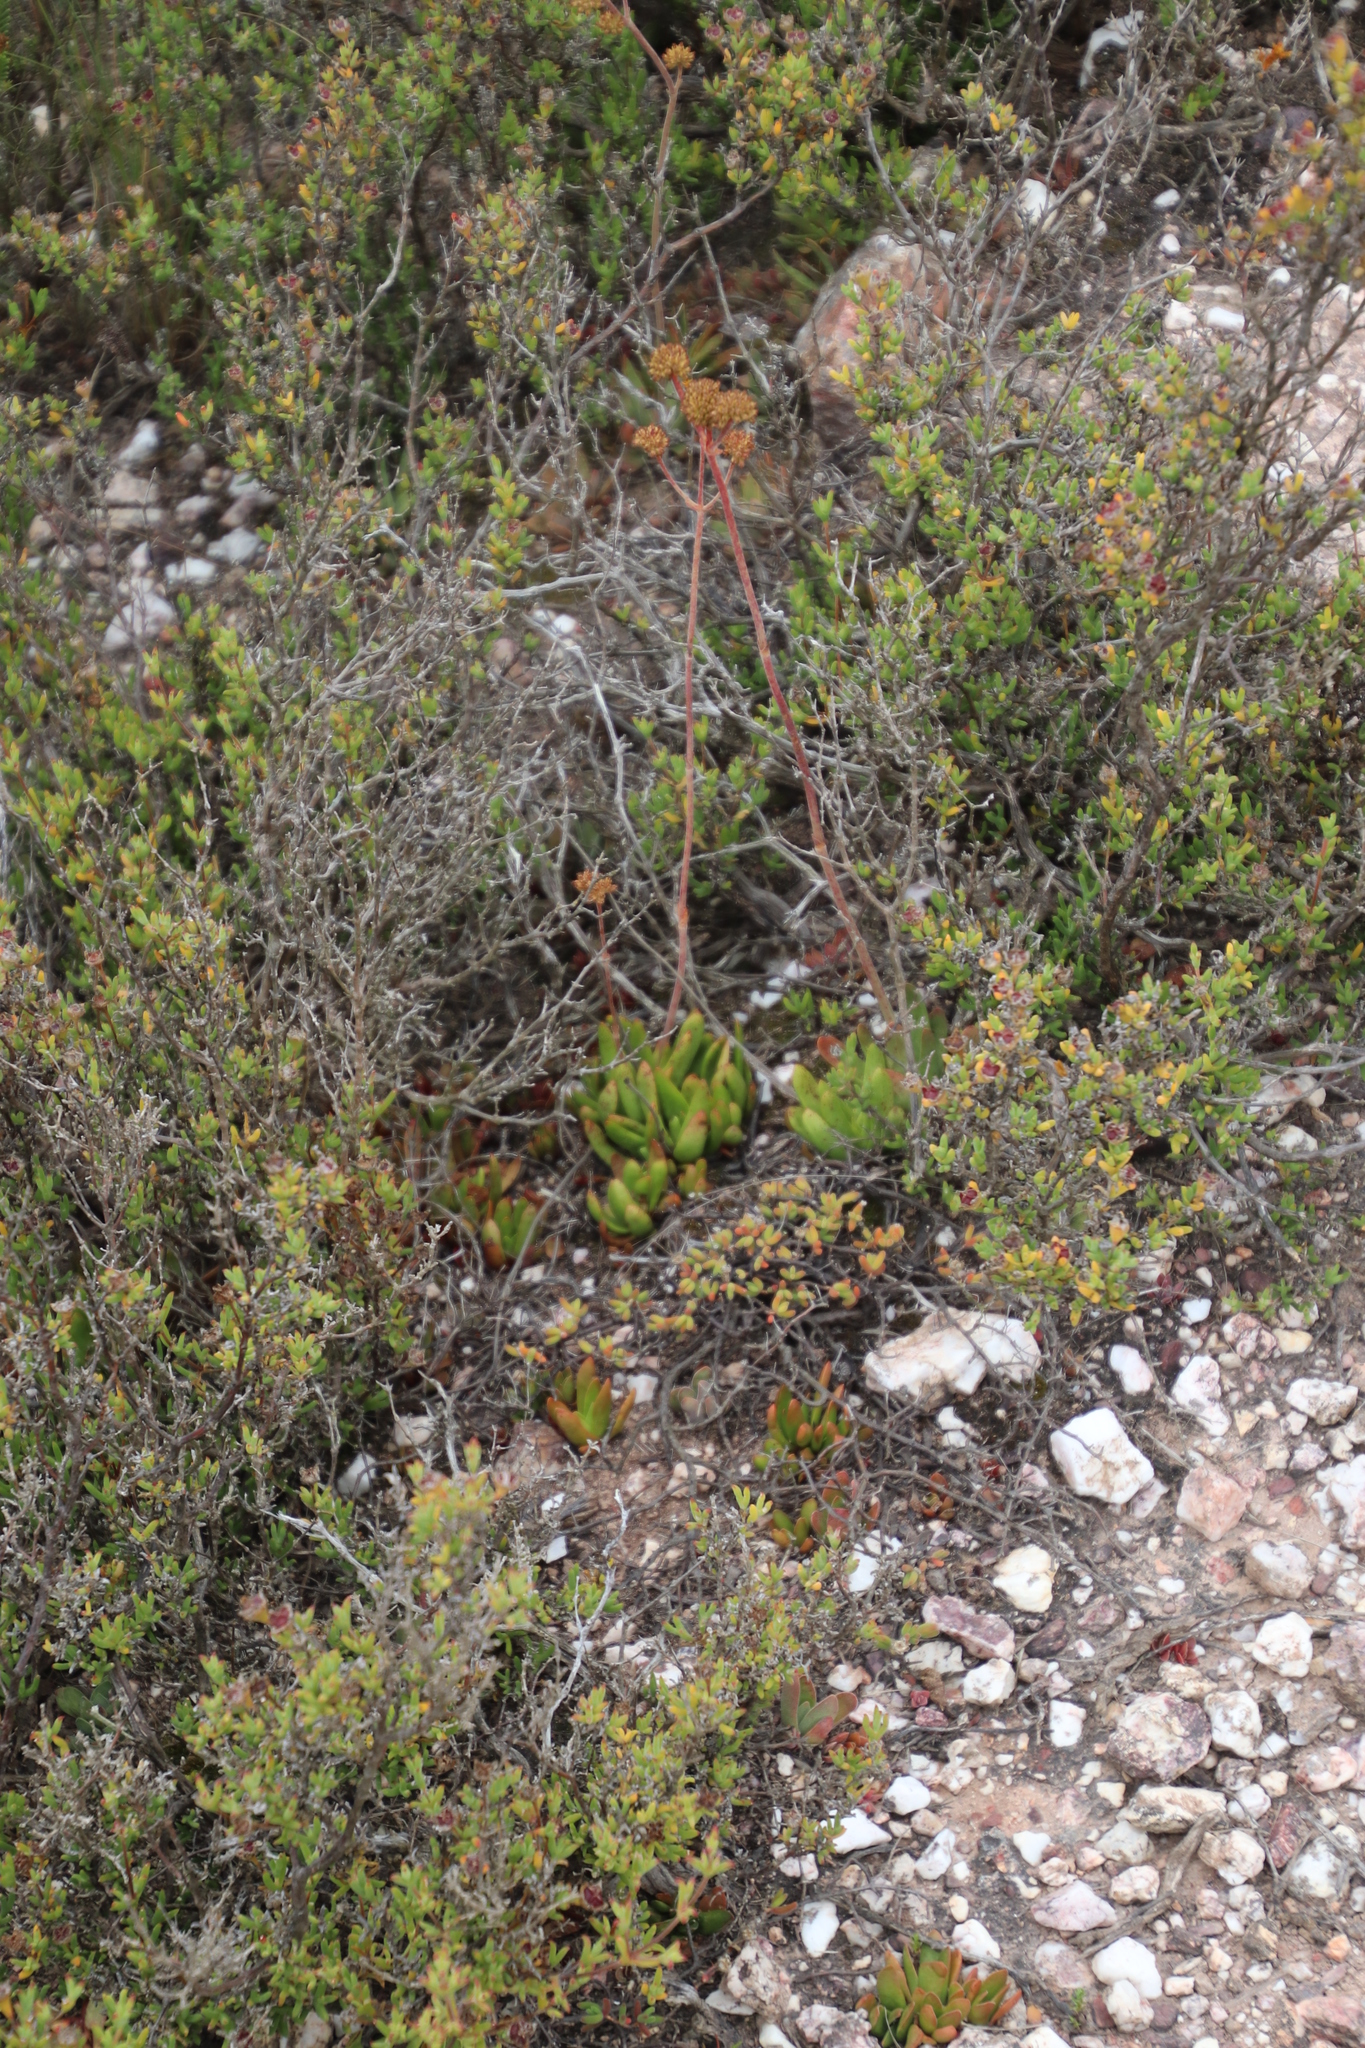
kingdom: Plantae
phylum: Tracheophyta
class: Magnoliopsida
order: Saxifragales
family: Crassulaceae
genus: Crassula
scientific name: Crassula nudicaulis
